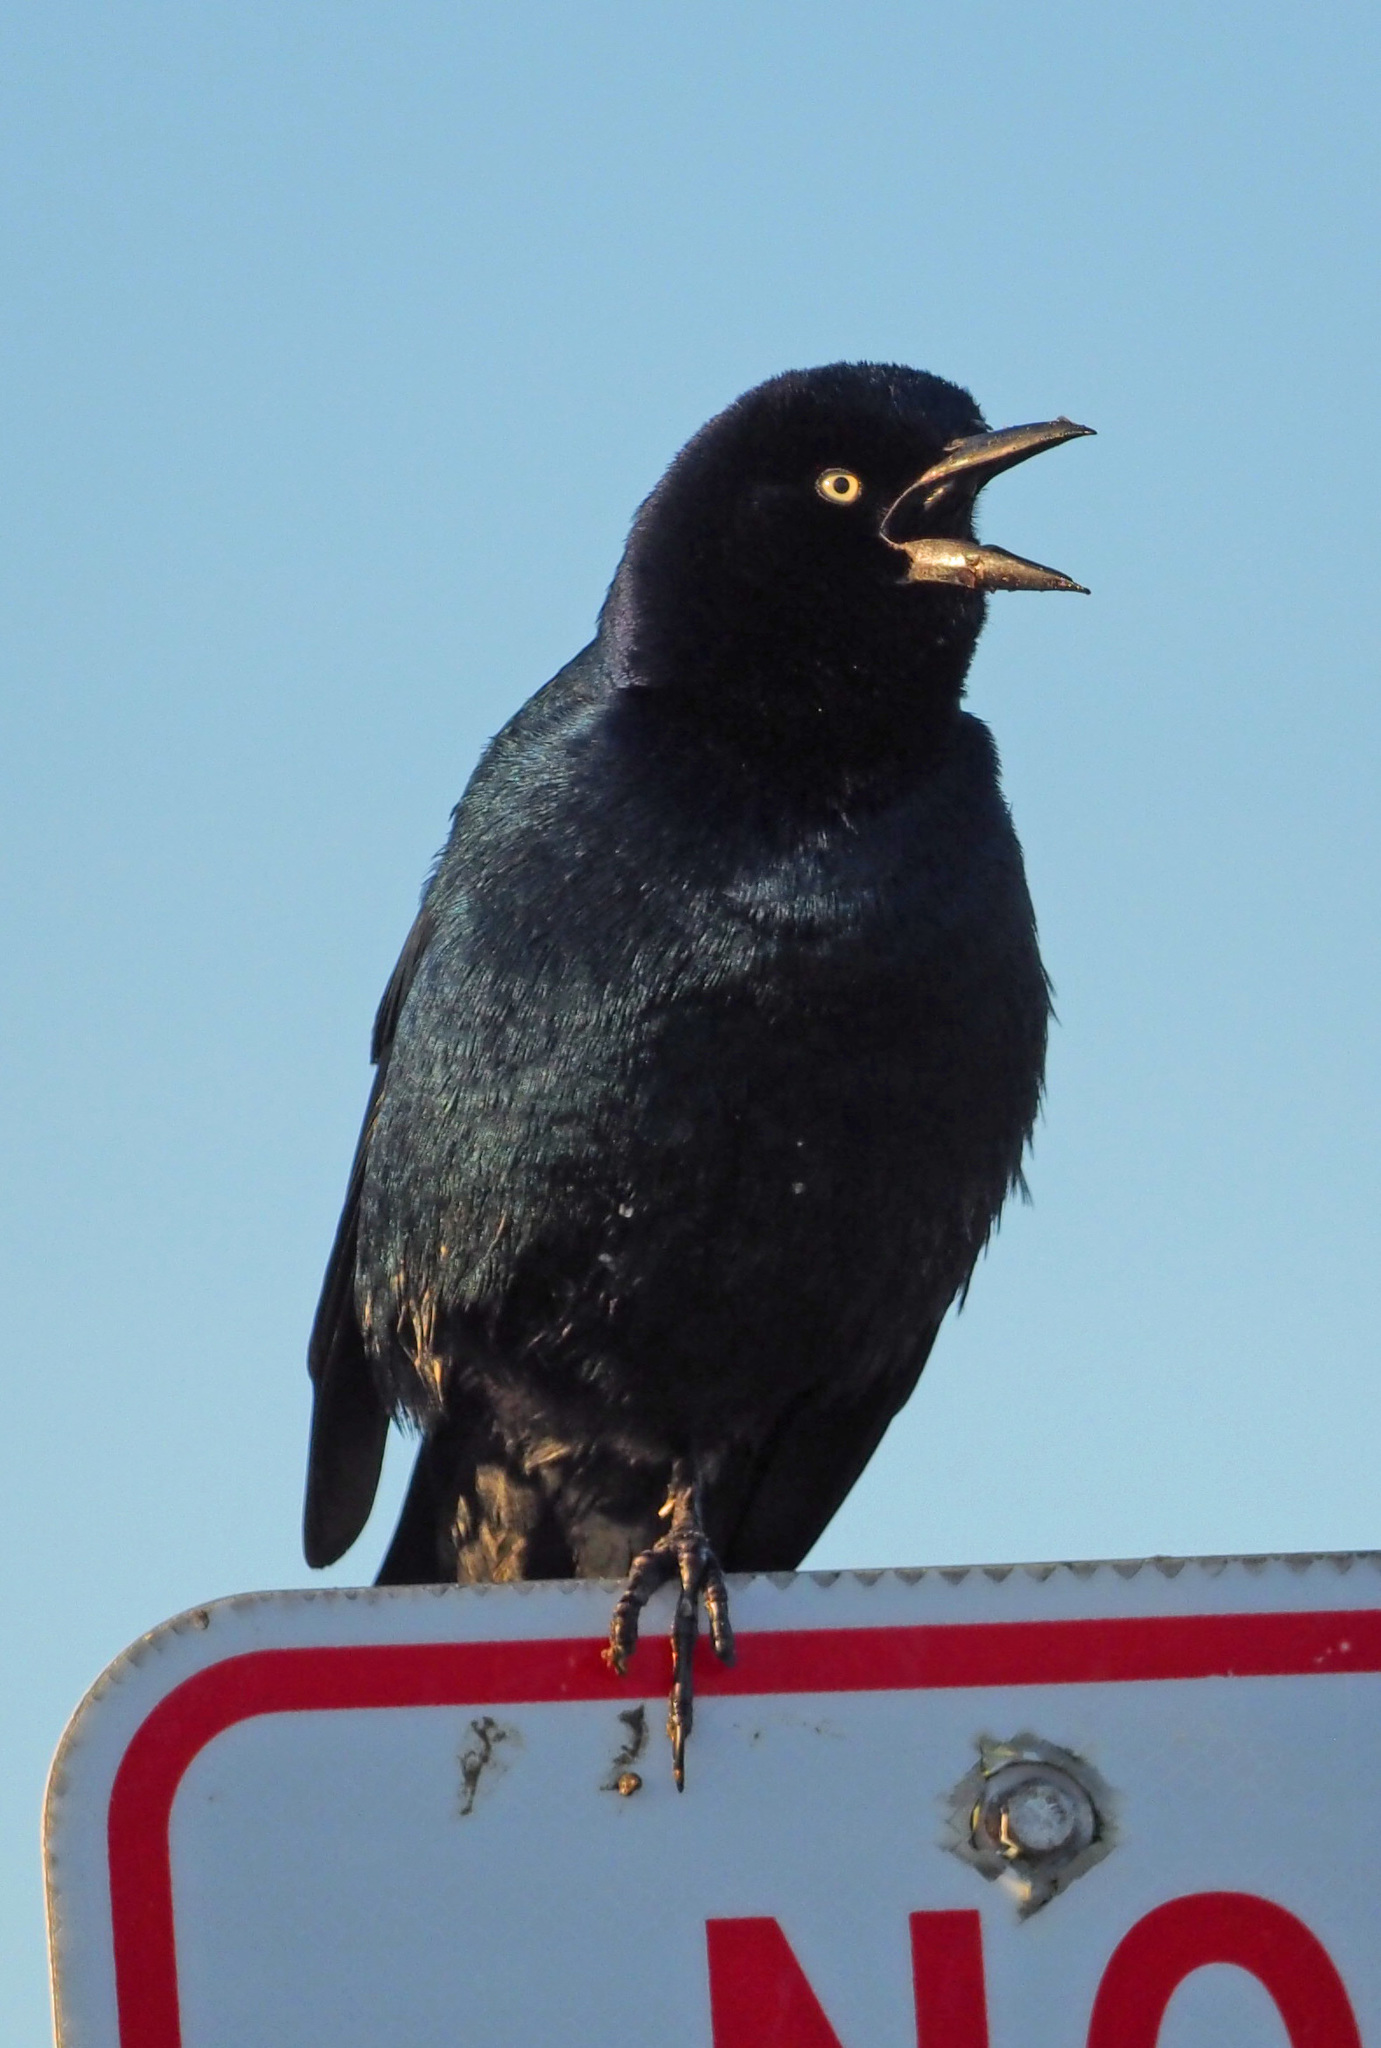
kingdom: Animalia
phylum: Chordata
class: Aves
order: Passeriformes
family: Icteridae
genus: Quiscalus
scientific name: Quiscalus major
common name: Boat-tailed grackle
